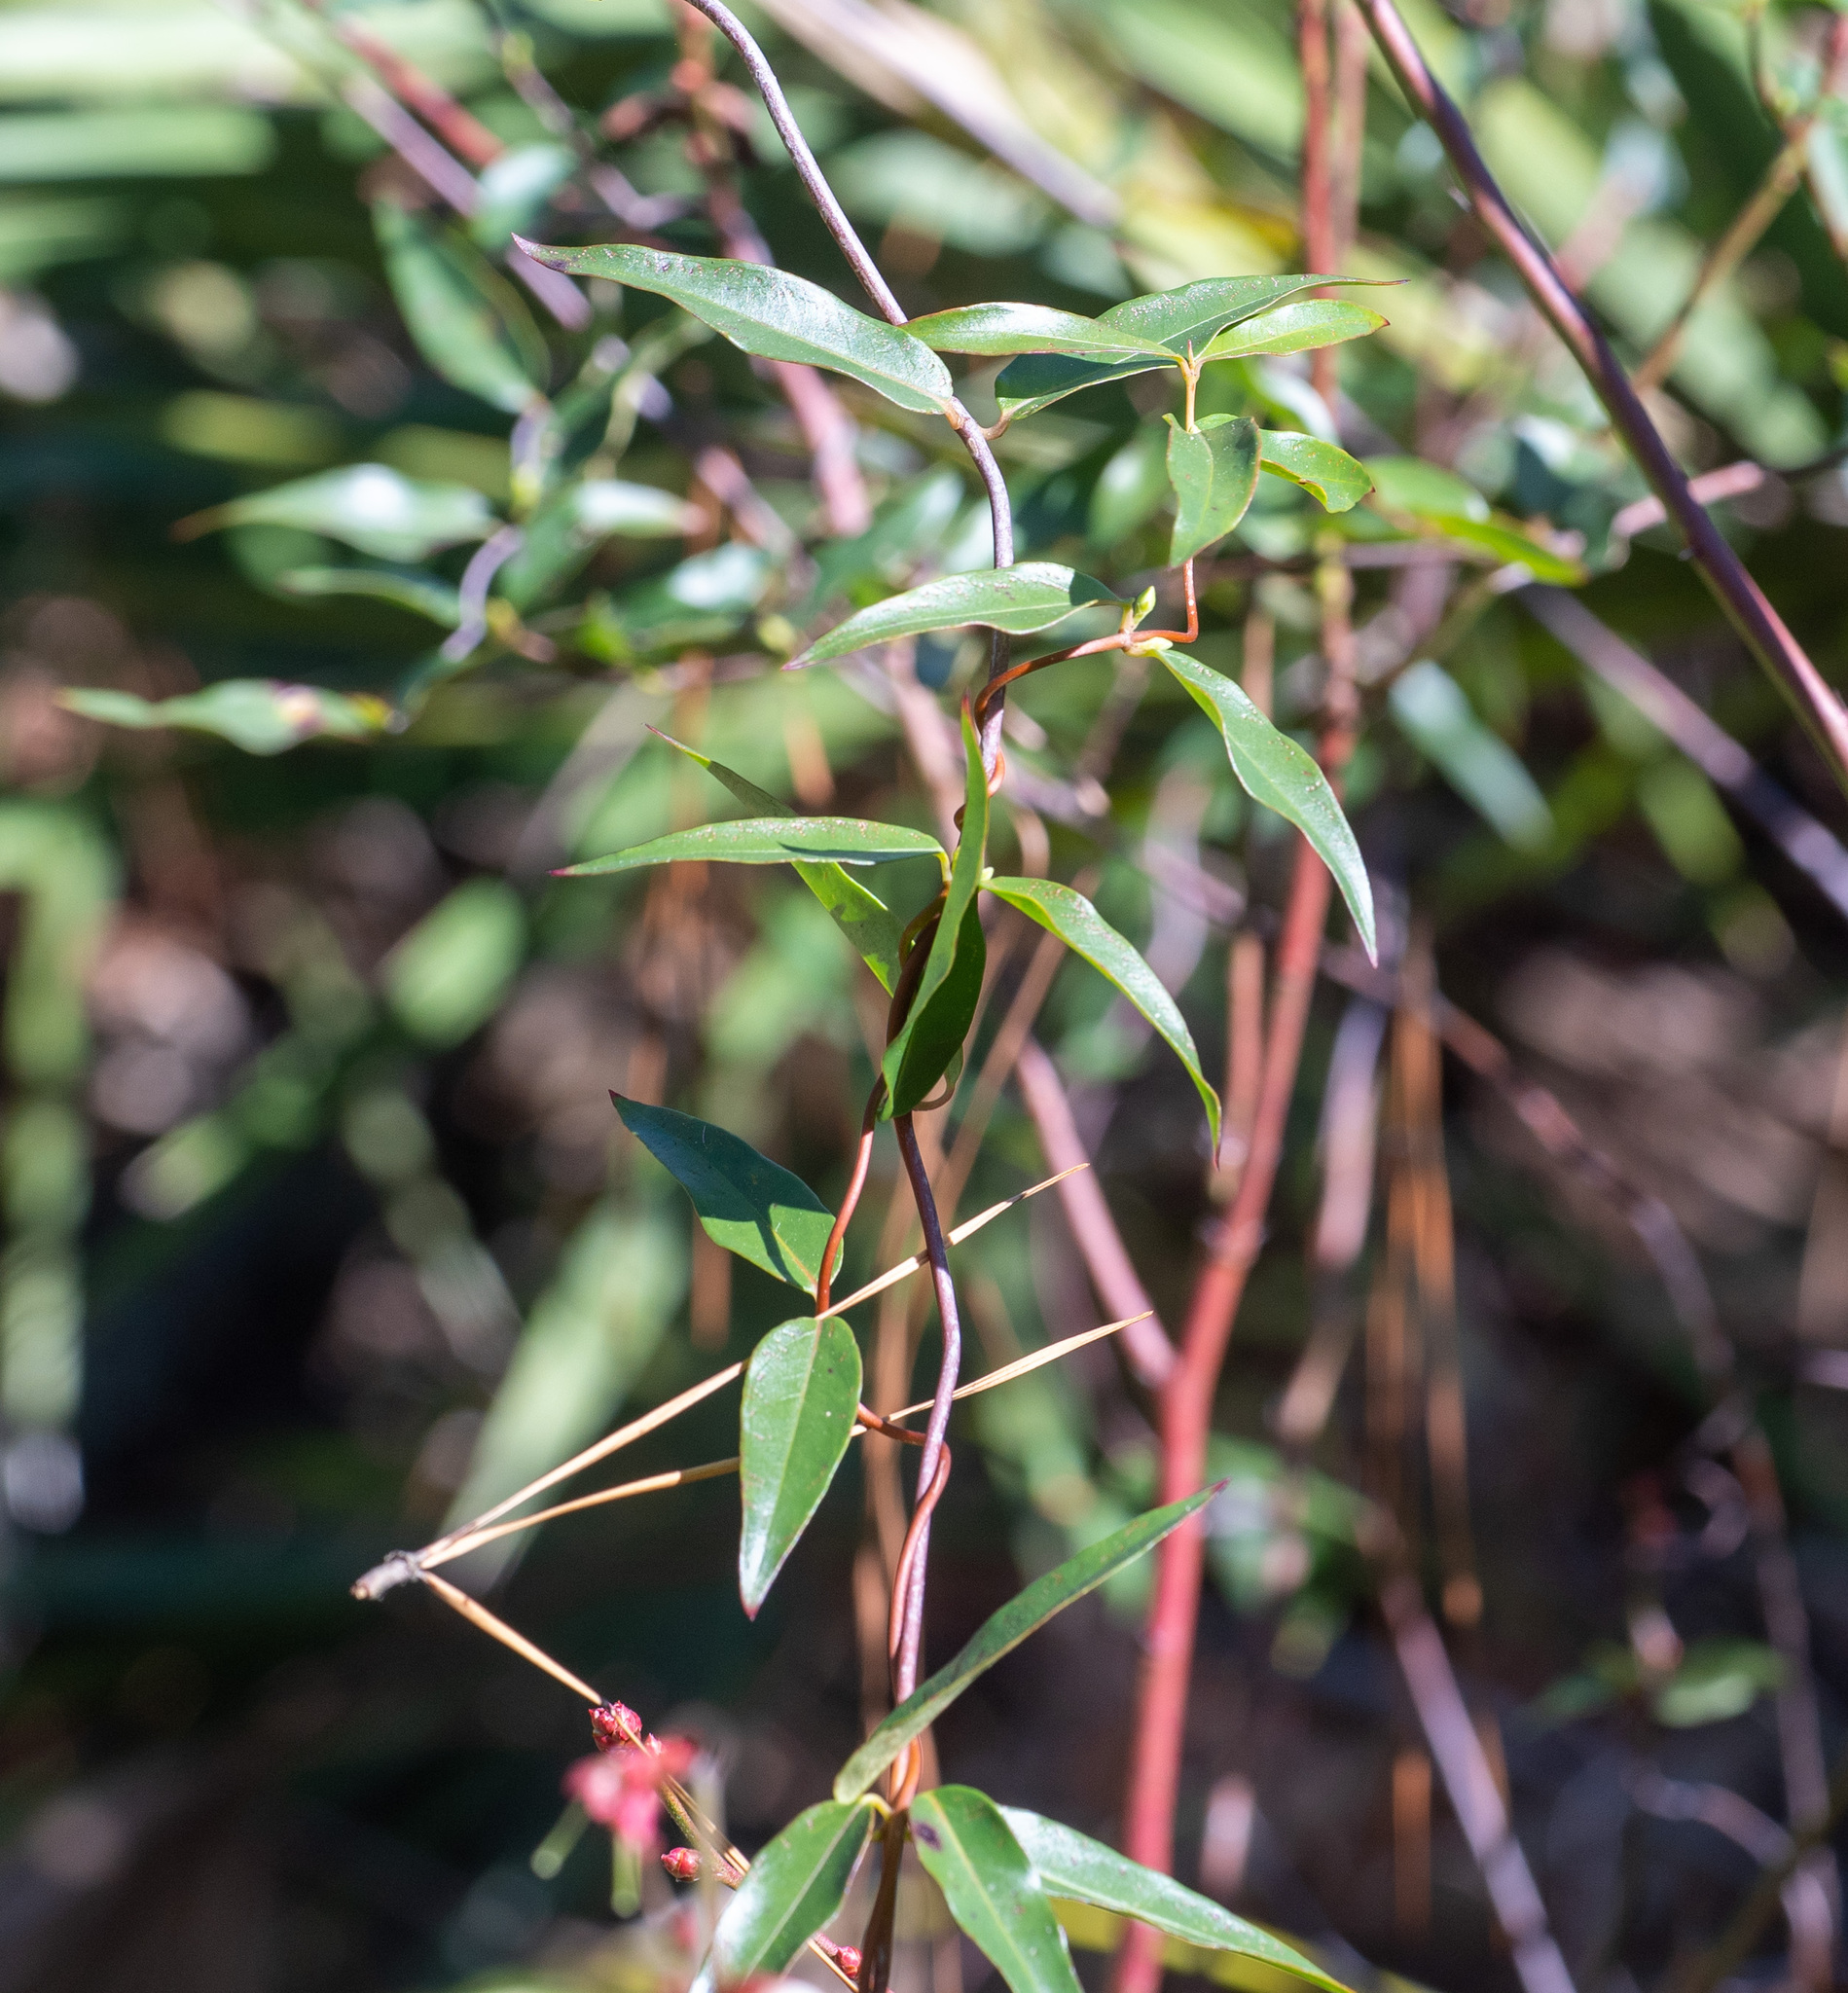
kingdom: Plantae
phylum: Tracheophyta
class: Magnoliopsida
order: Gentianales
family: Gelsemiaceae
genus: Gelsemium
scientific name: Gelsemium sempervirens
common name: Carolina-jasmine
